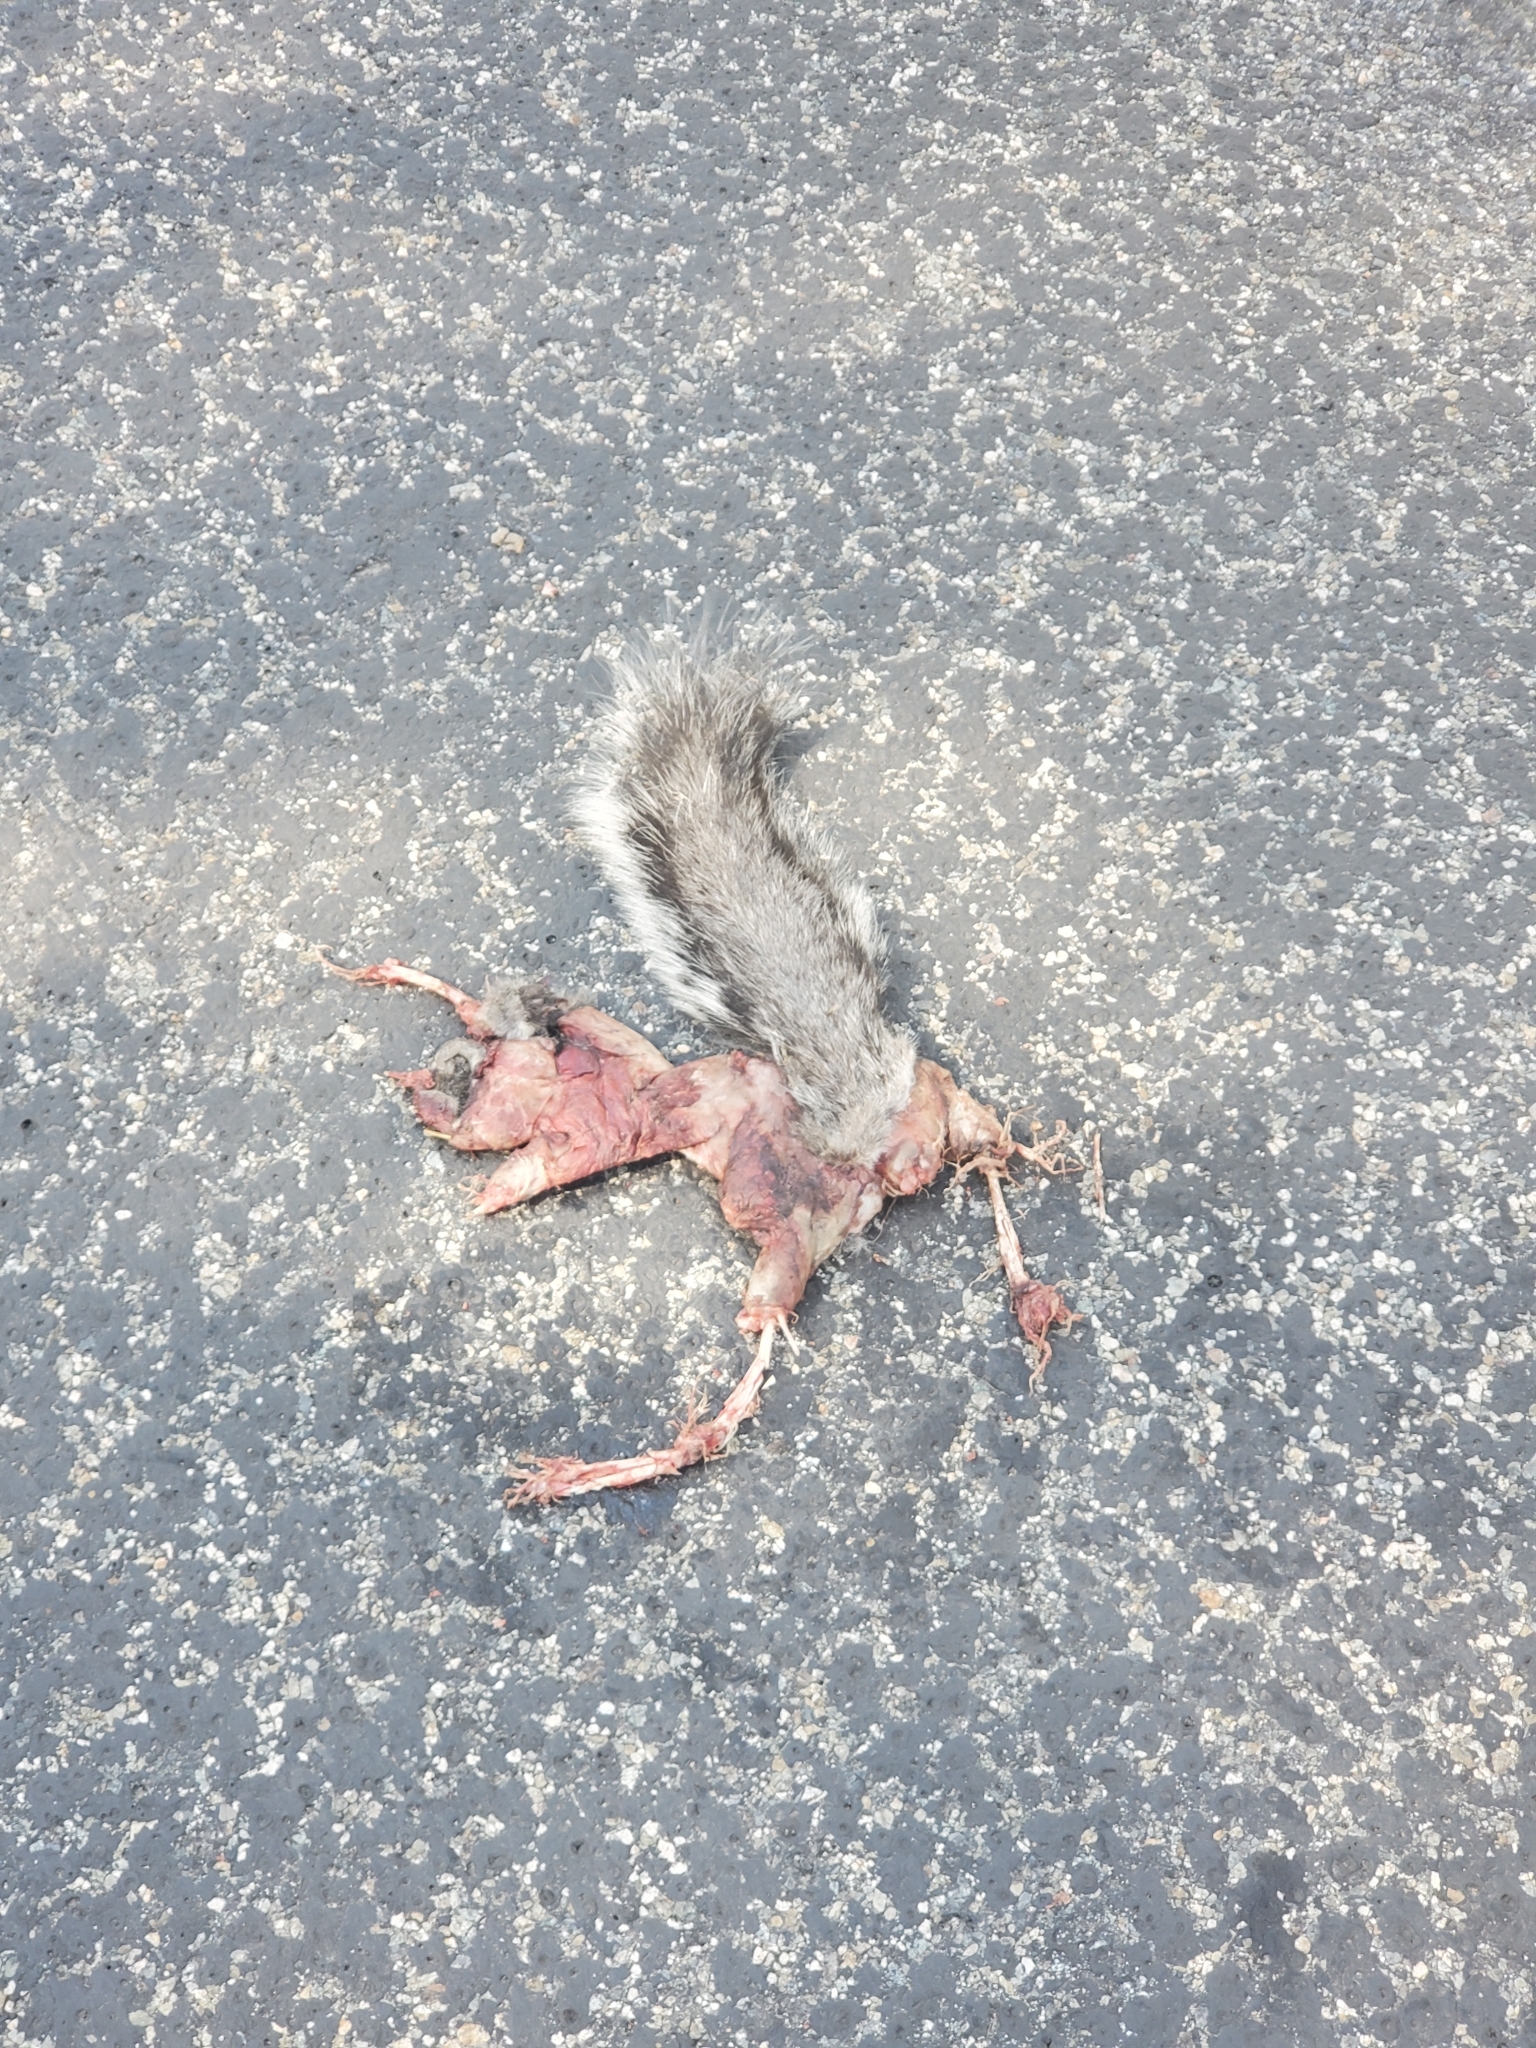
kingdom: Animalia
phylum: Chordata
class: Mammalia
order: Rodentia
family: Sciuridae
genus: Sciurus
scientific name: Sciurus griseus
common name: Western gray squirrel
